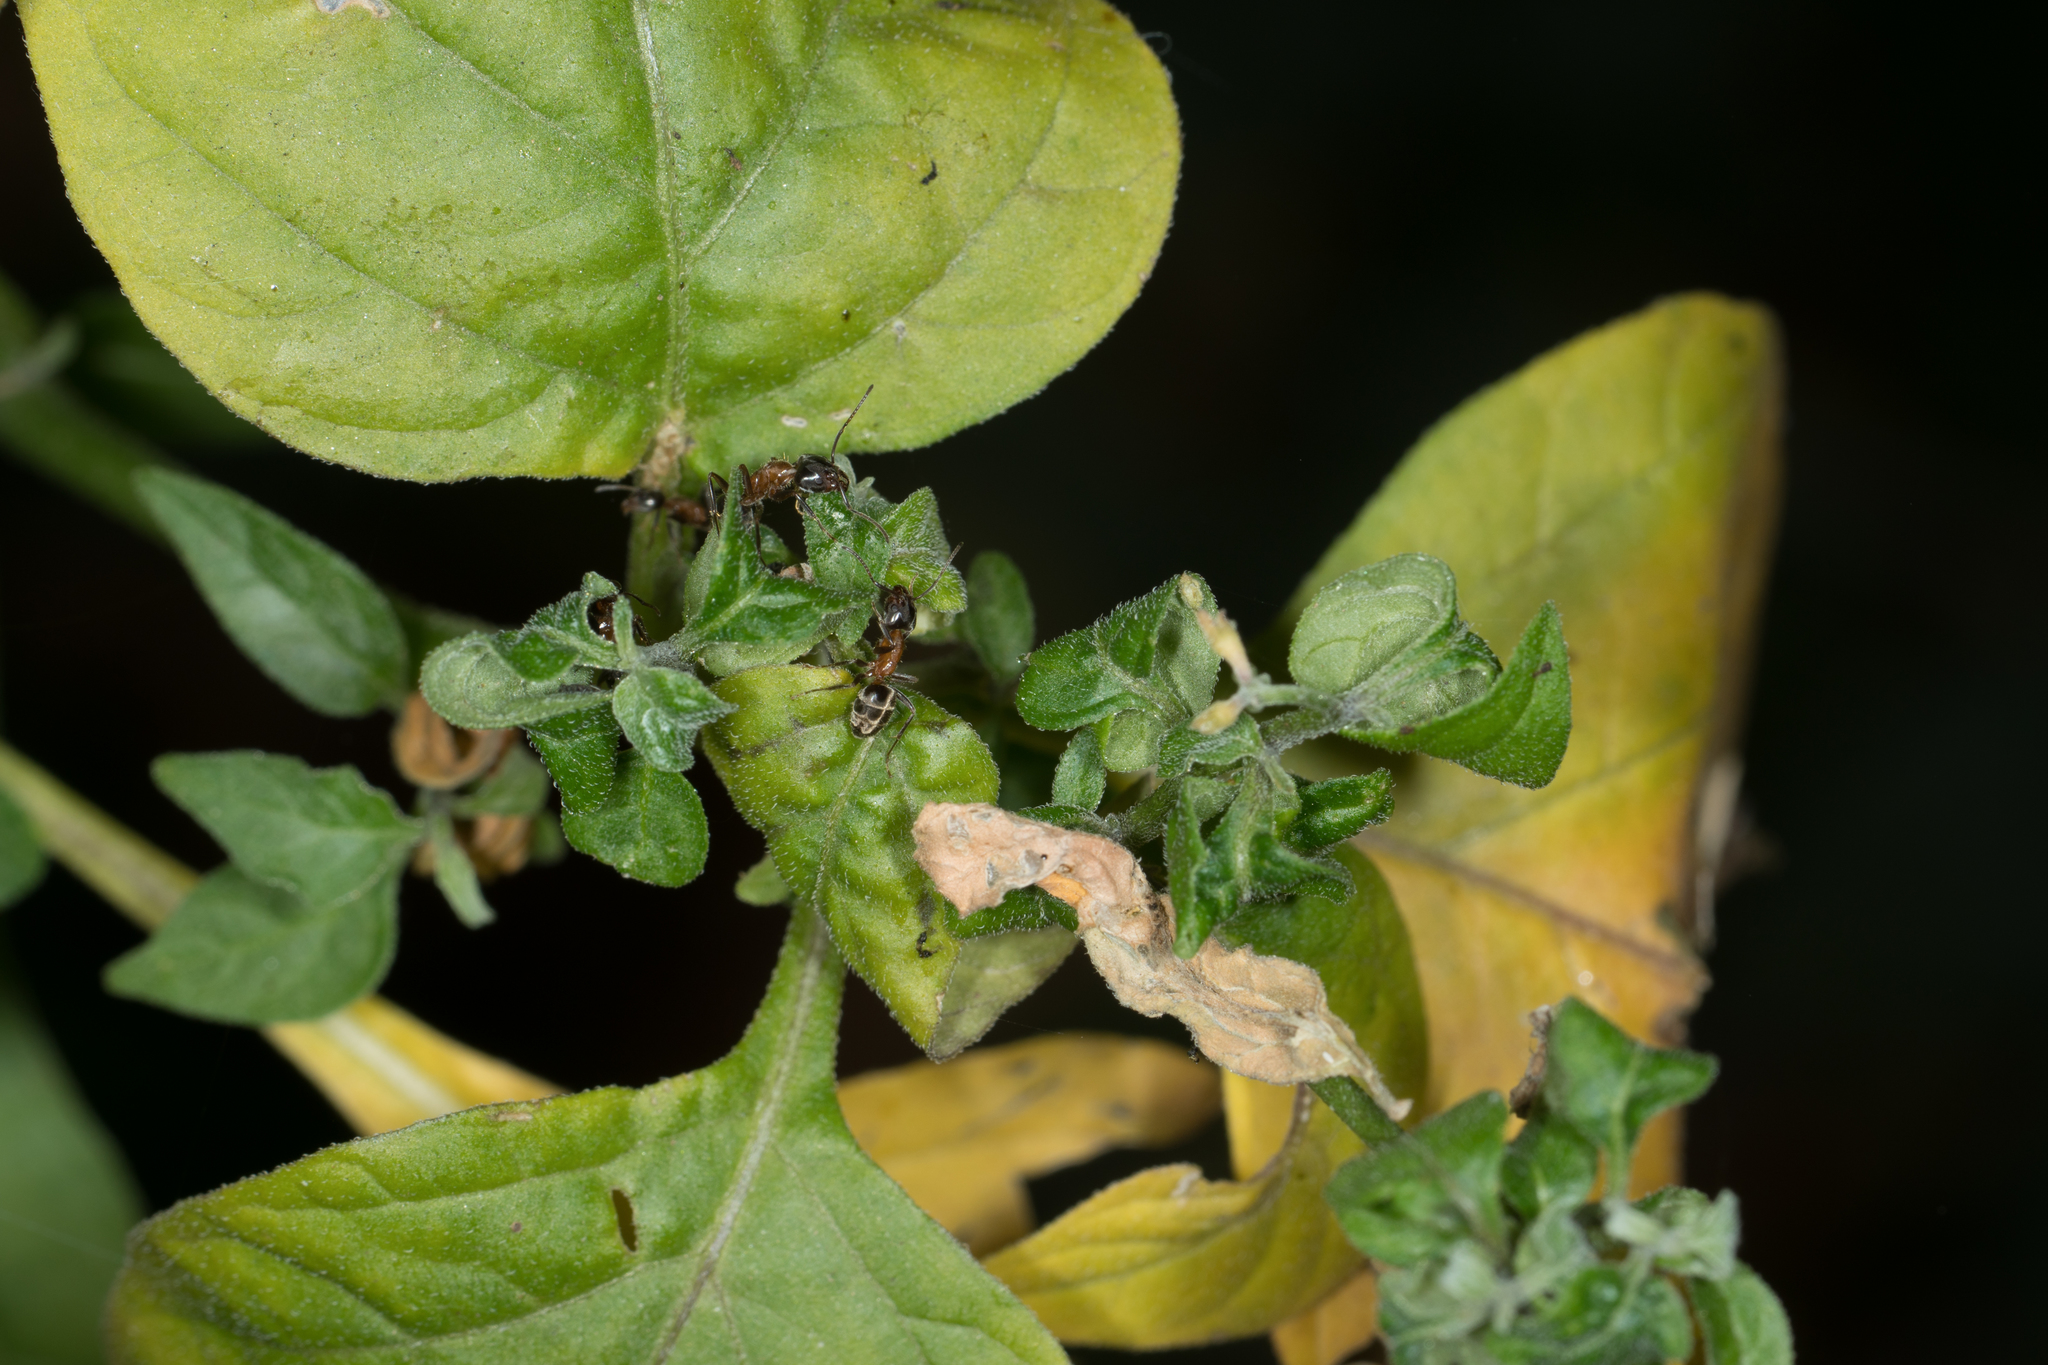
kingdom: Animalia
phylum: Arthropoda
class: Insecta
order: Hymenoptera
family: Formicidae
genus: Liometopum
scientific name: Liometopum occidentale
